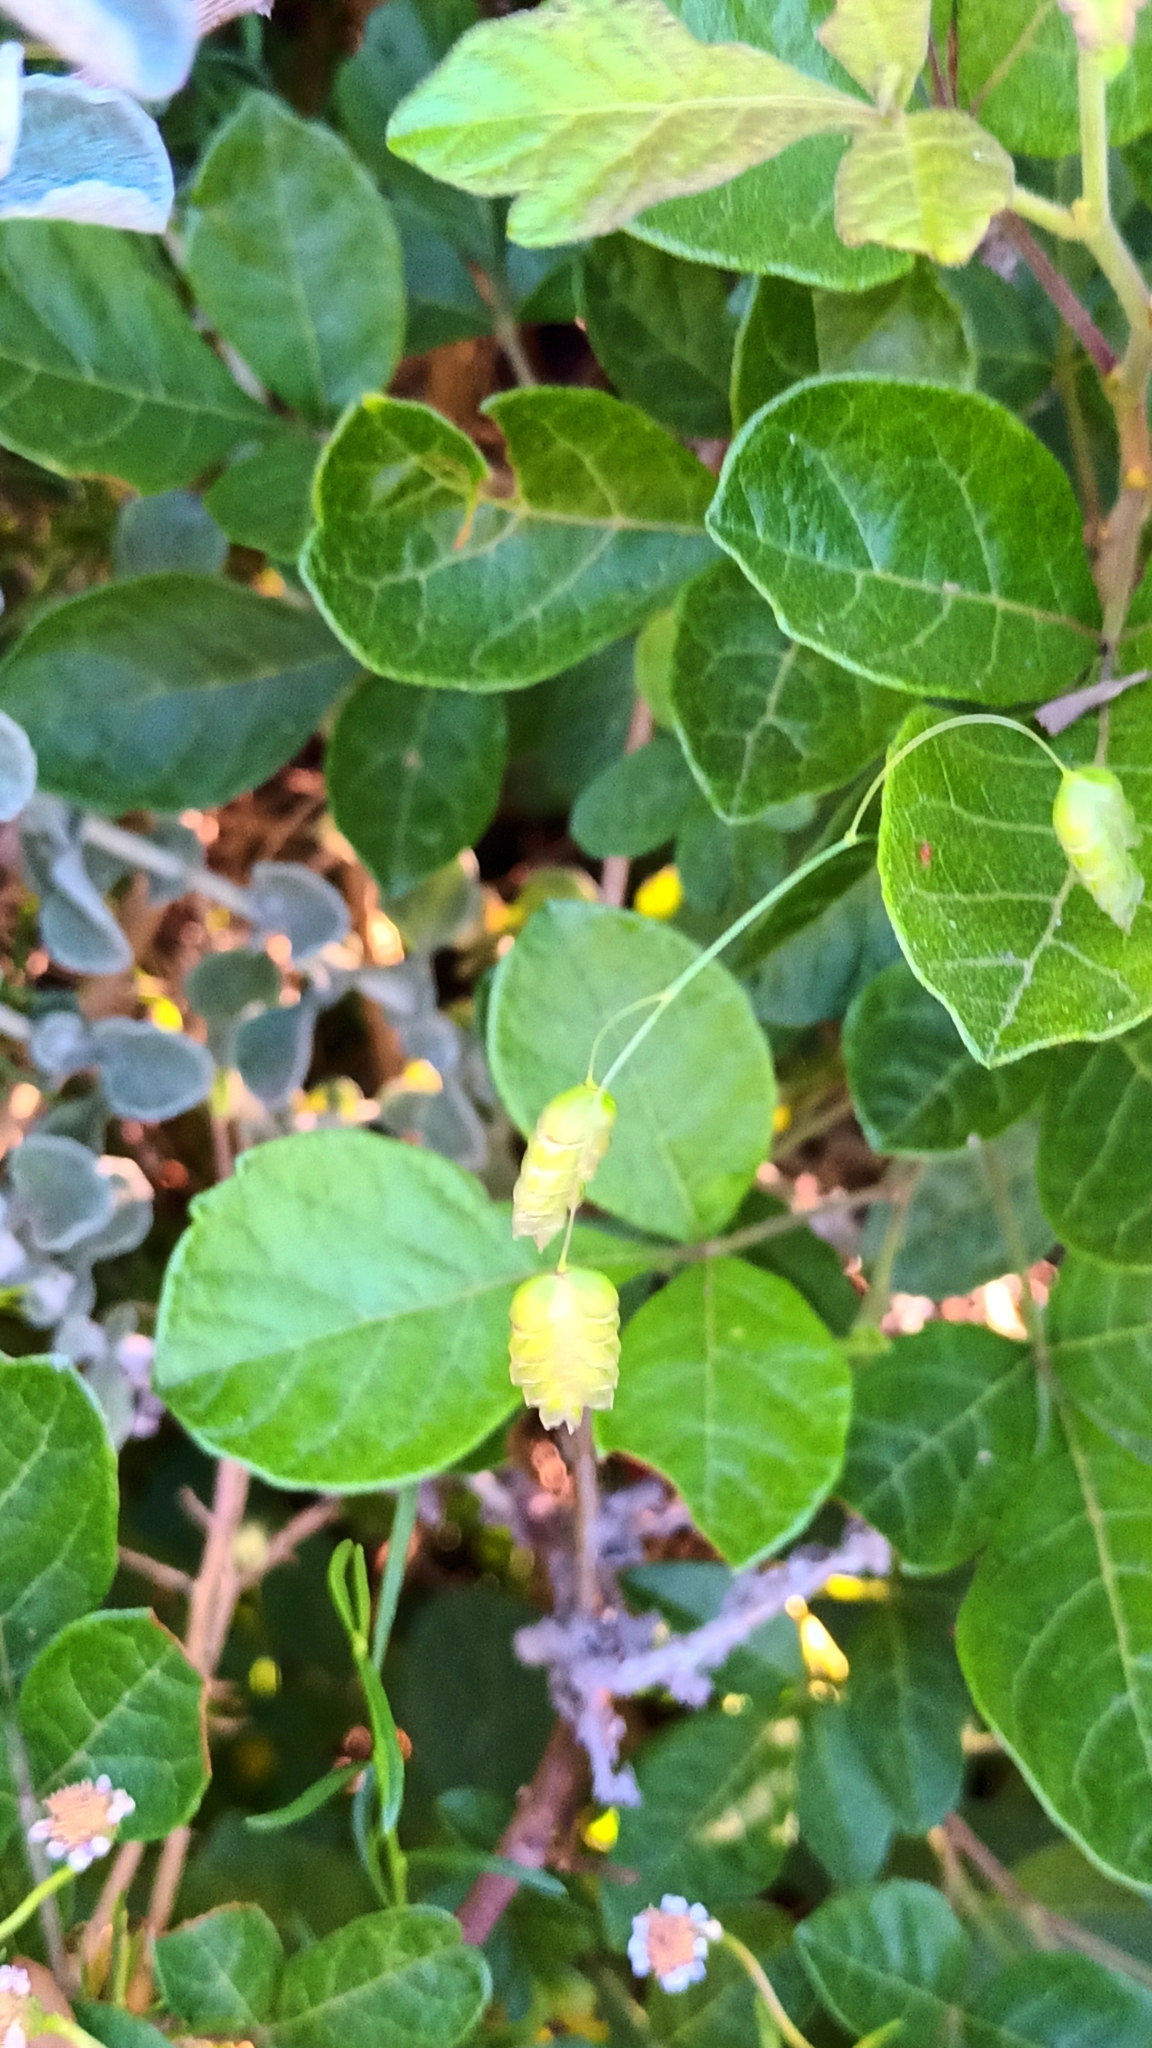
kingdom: Plantae
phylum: Tracheophyta
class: Liliopsida
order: Poales
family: Poaceae
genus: Briza
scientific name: Briza maxima
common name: Big quakinggrass
